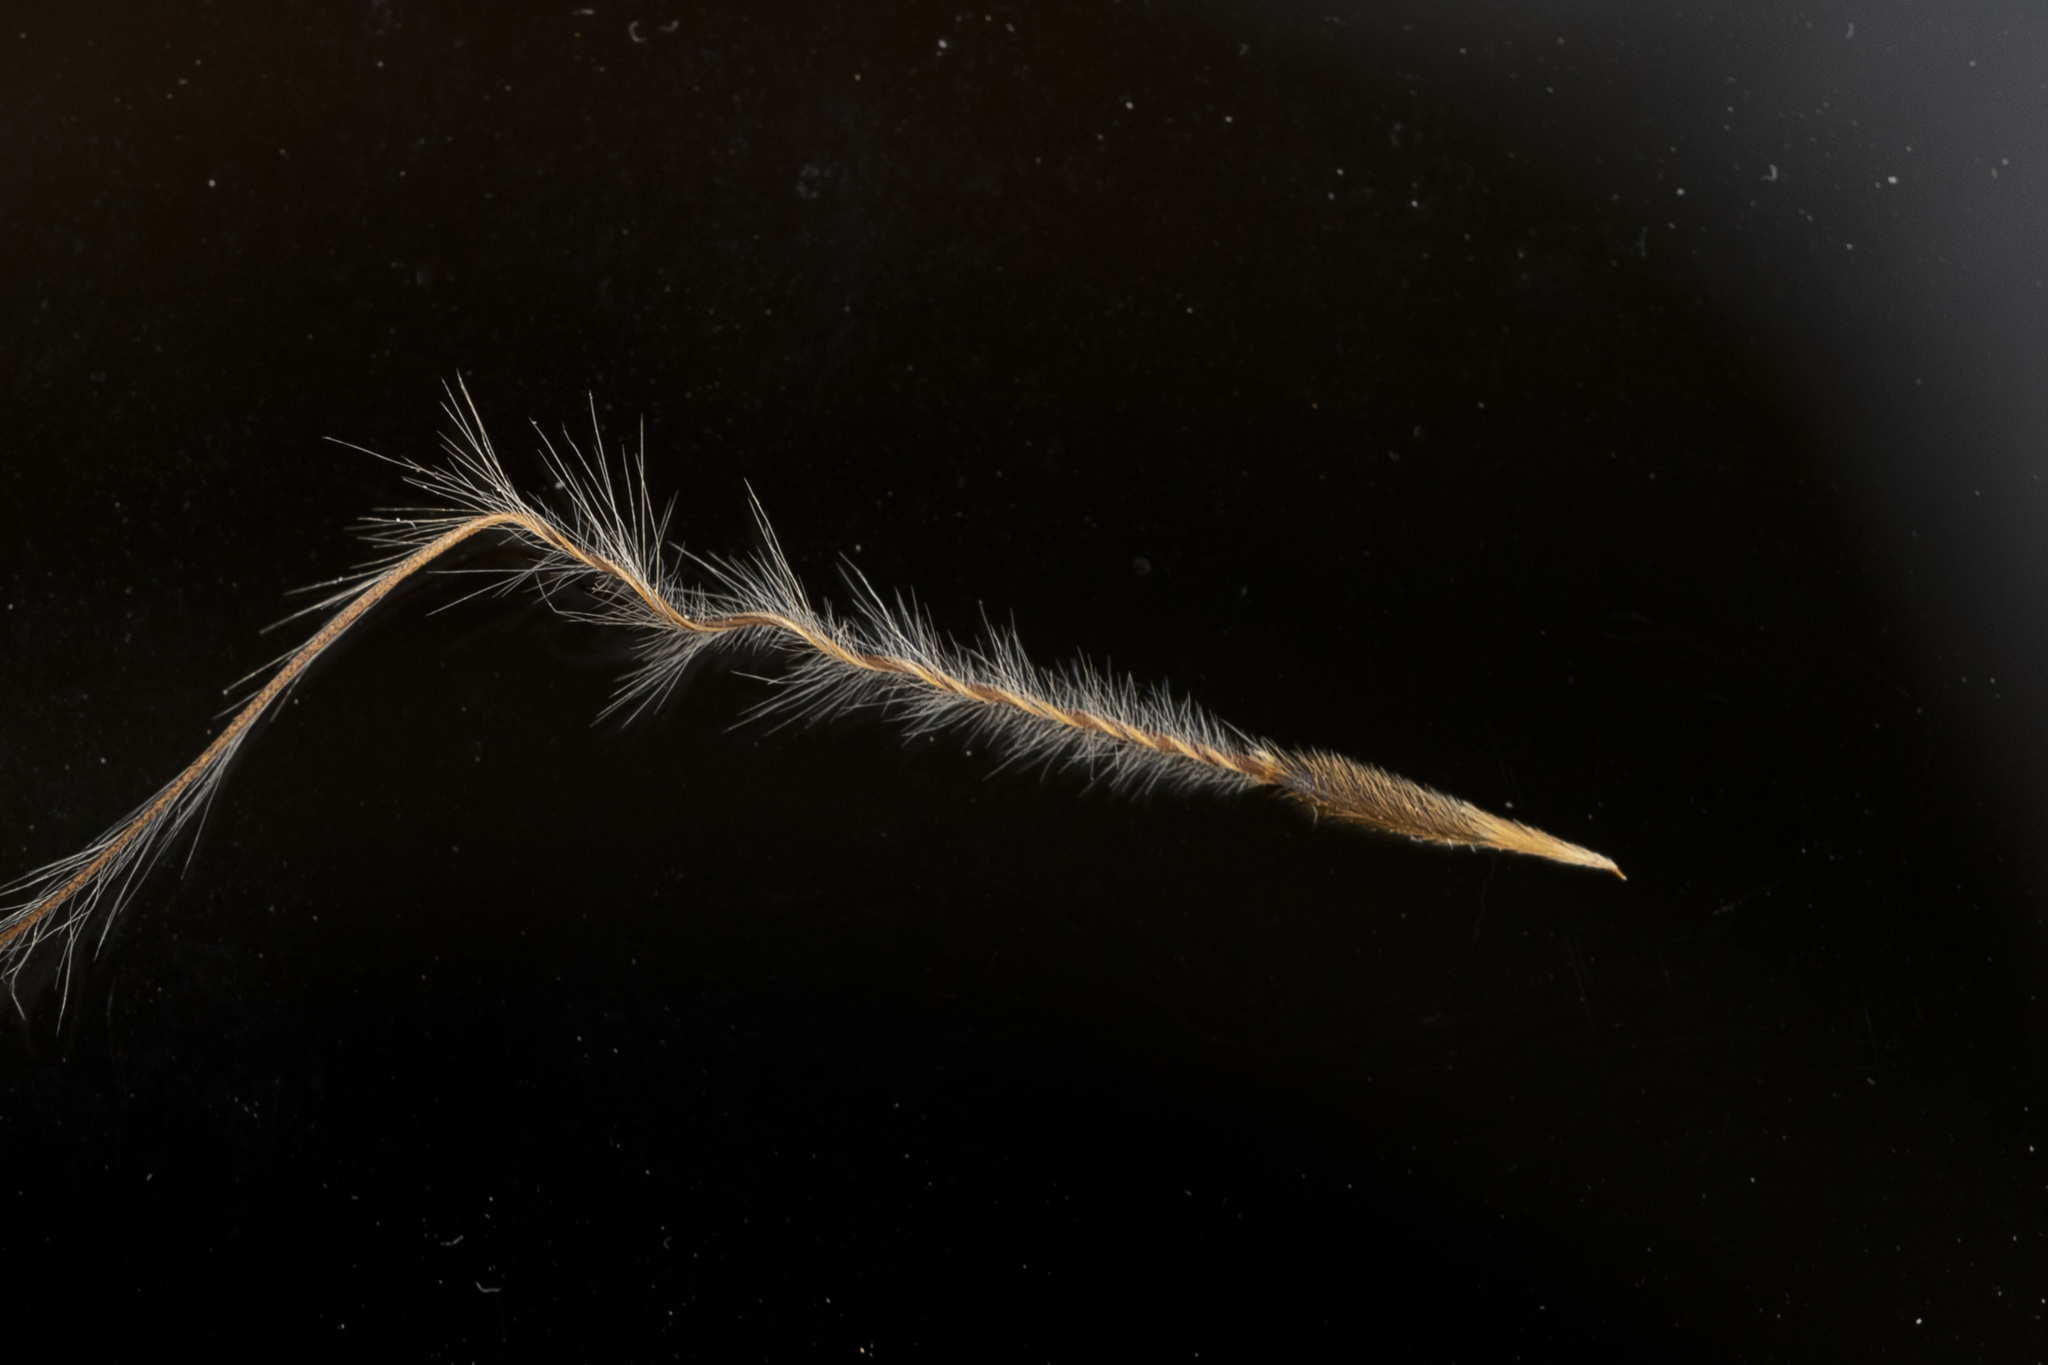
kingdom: Plantae
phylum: Tracheophyta
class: Liliopsida
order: Poales
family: Poaceae
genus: Austrostipa
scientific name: Austrostipa mollis
